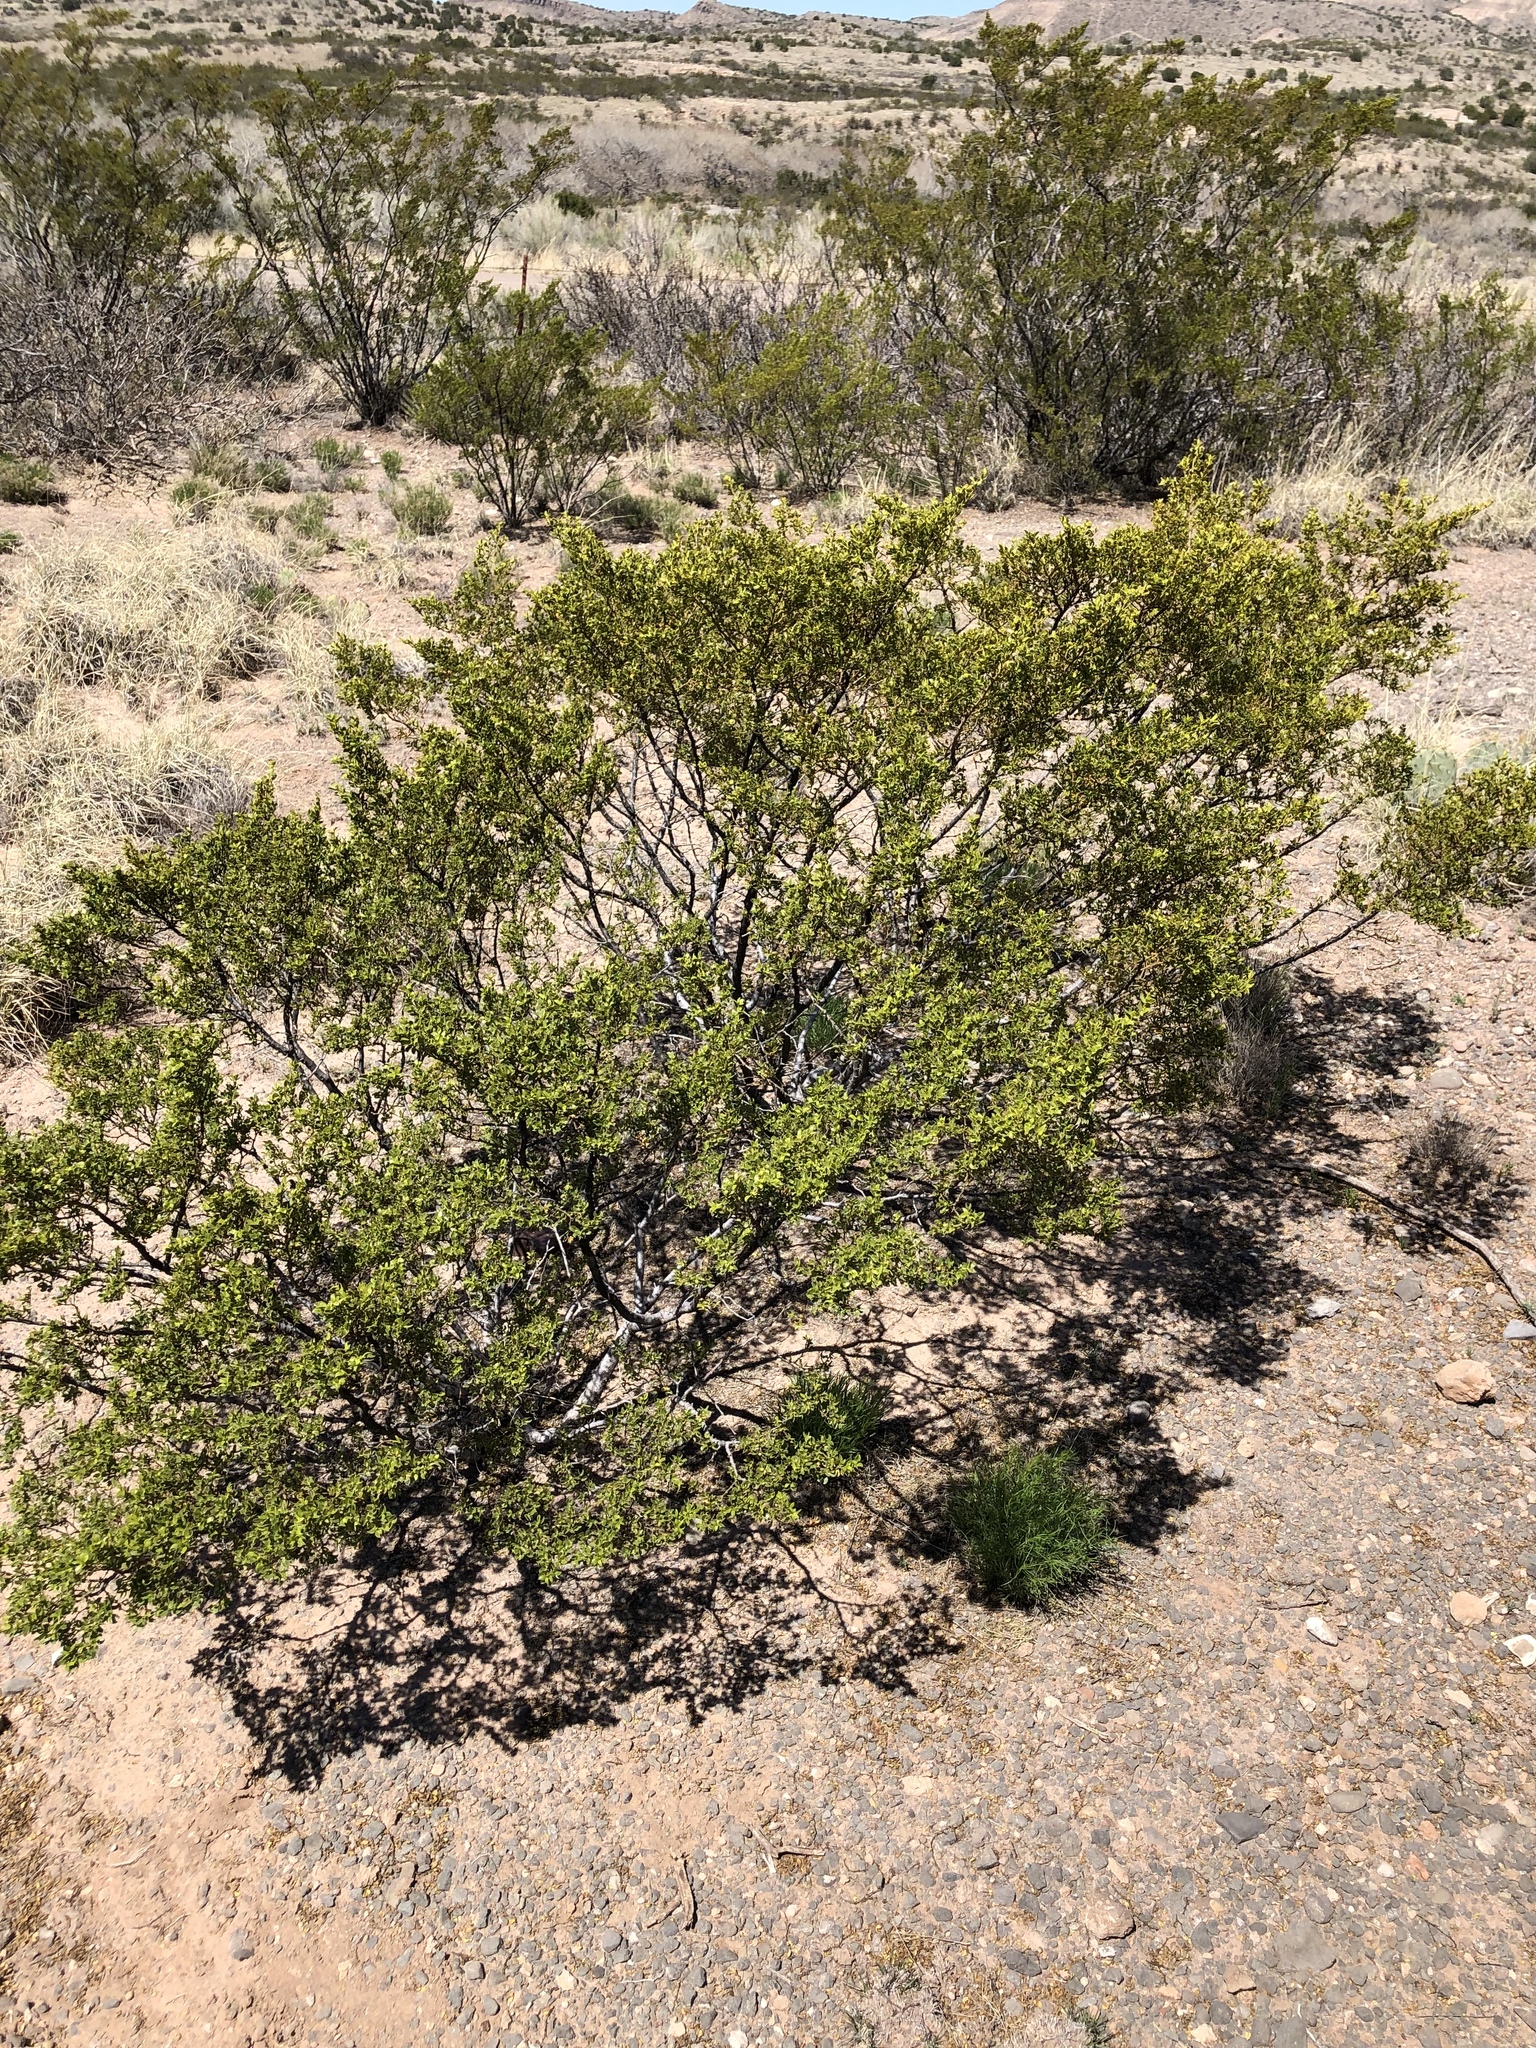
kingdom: Plantae
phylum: Tracheophyta
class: Magnoliopsida
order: Zygophyllales
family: Zygophyllaceae
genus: Larrea
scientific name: Larrea tridentata
